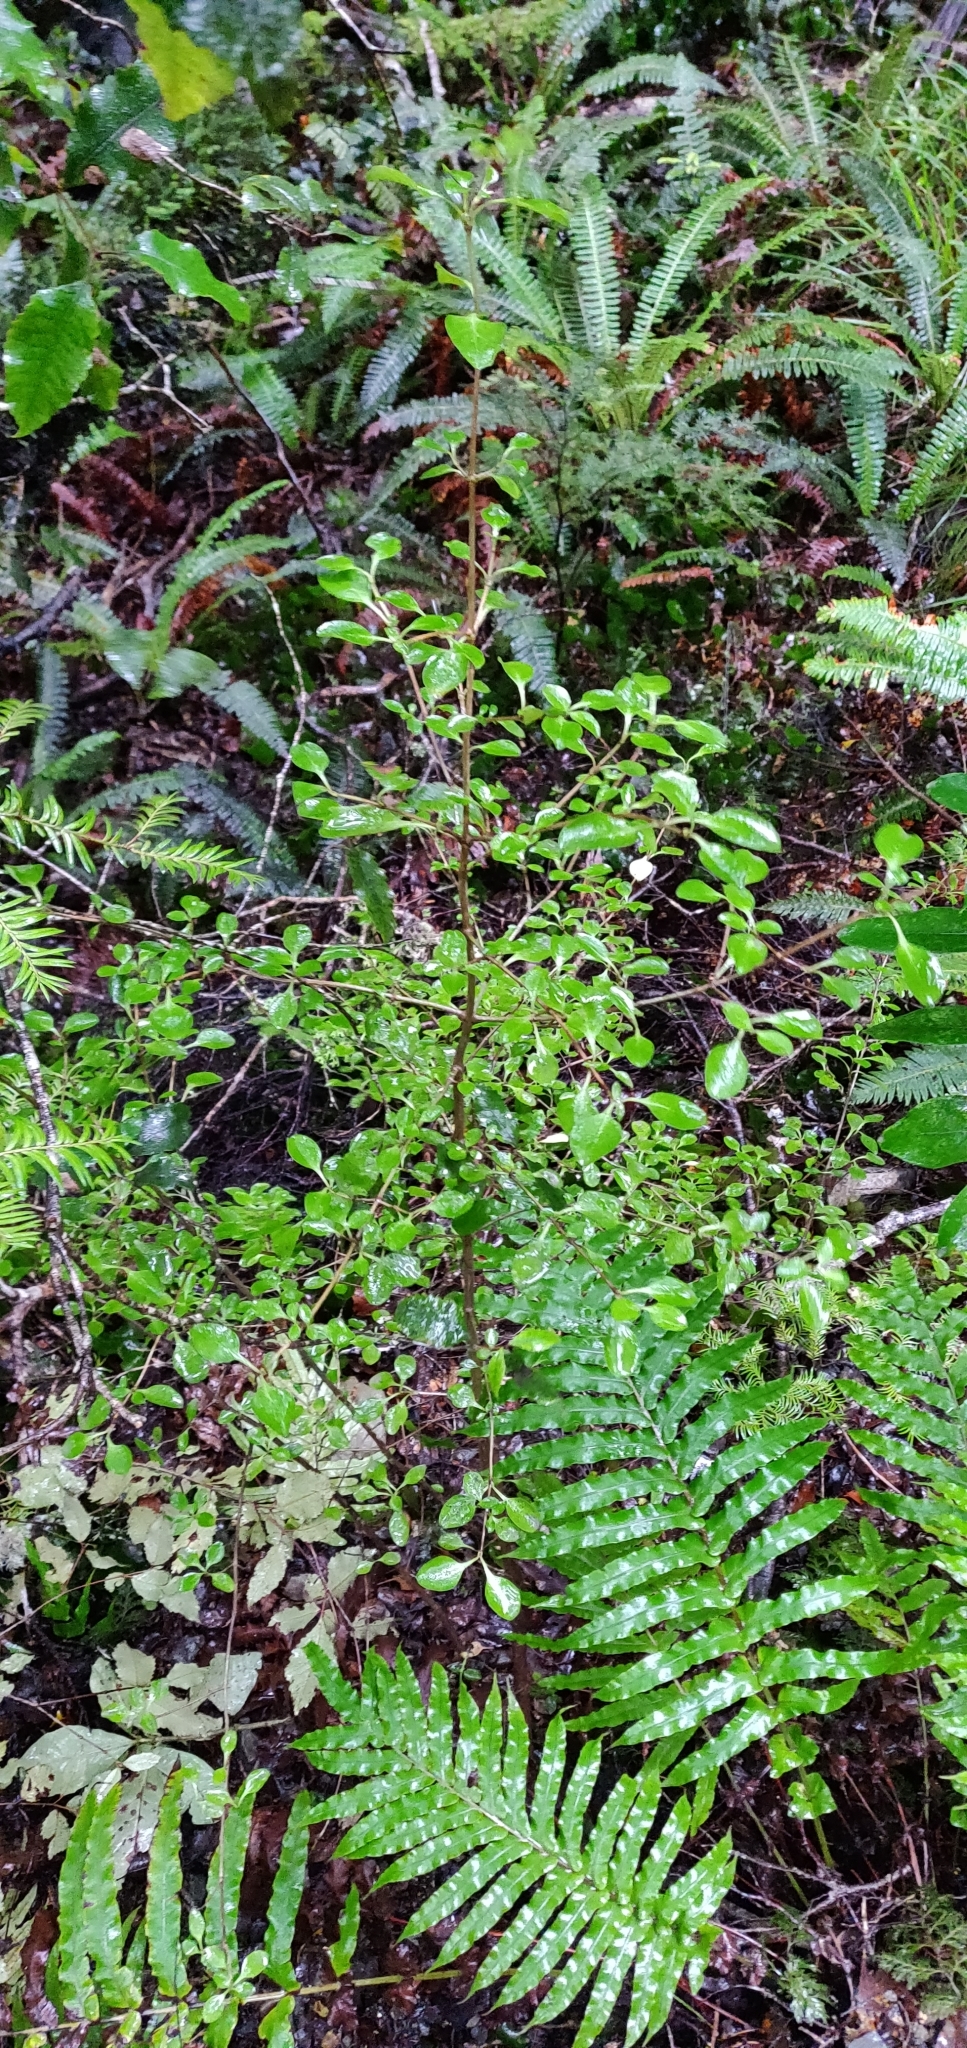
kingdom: Plantae
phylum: Tracheophyta
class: Magnoliopsida
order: Gentianales
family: Rubiaceae
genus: Coprosma
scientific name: Coprosma foetidissima
